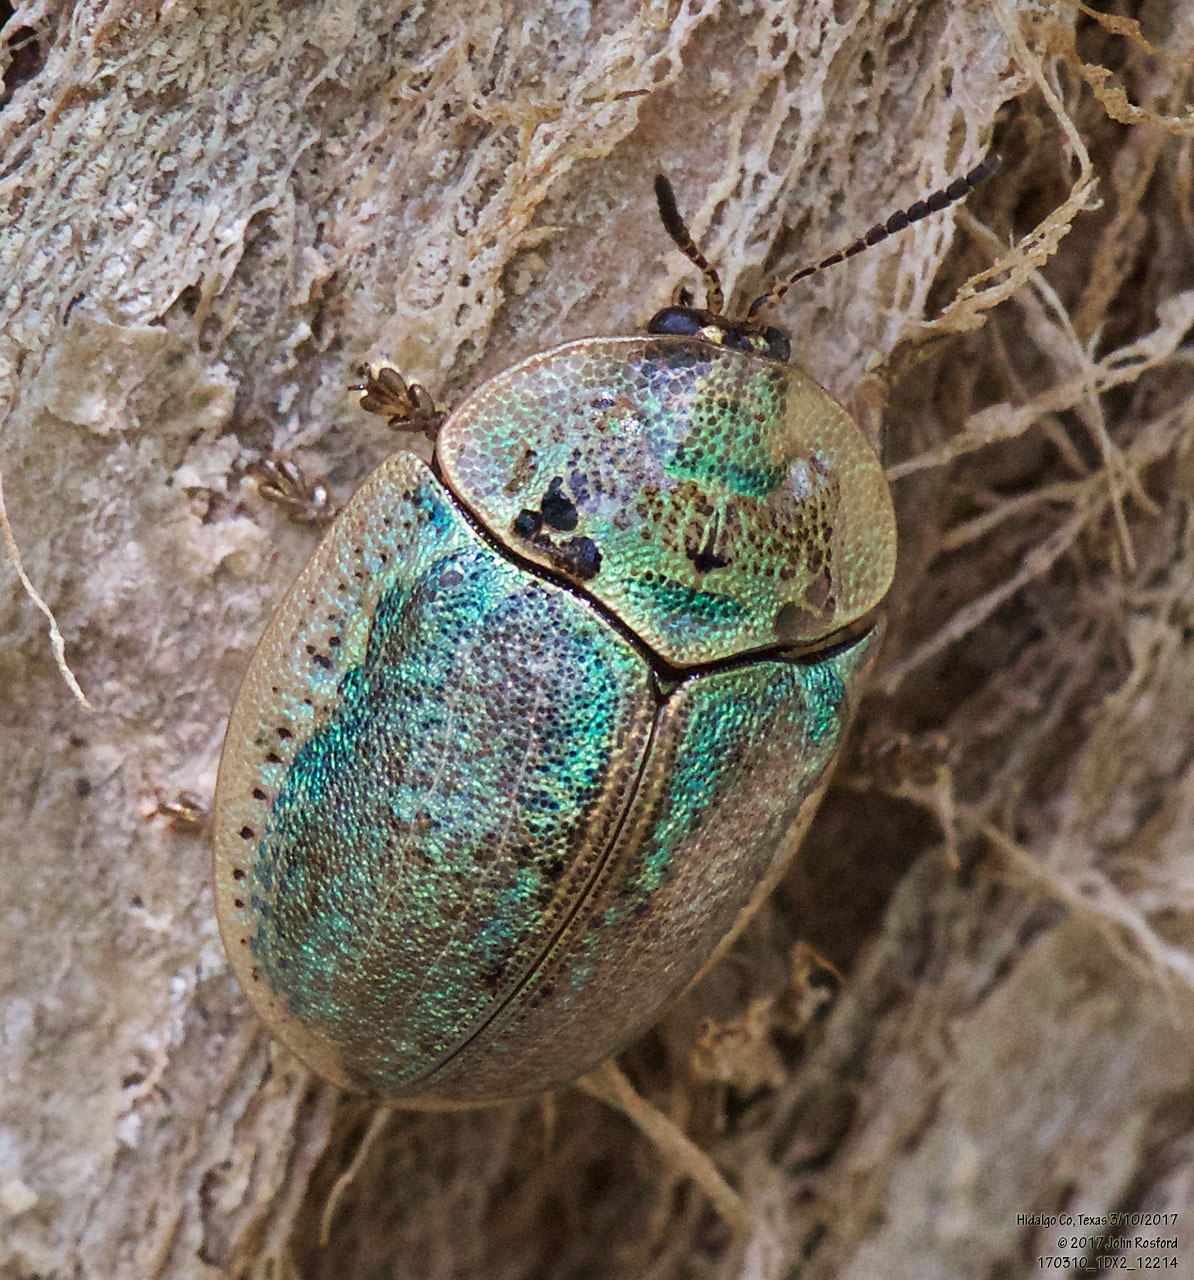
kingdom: Animalia
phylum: Arthropoda
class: Insecta
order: Coleoptera
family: Chrysomelidae
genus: Physonota
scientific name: Physonota alutacea
